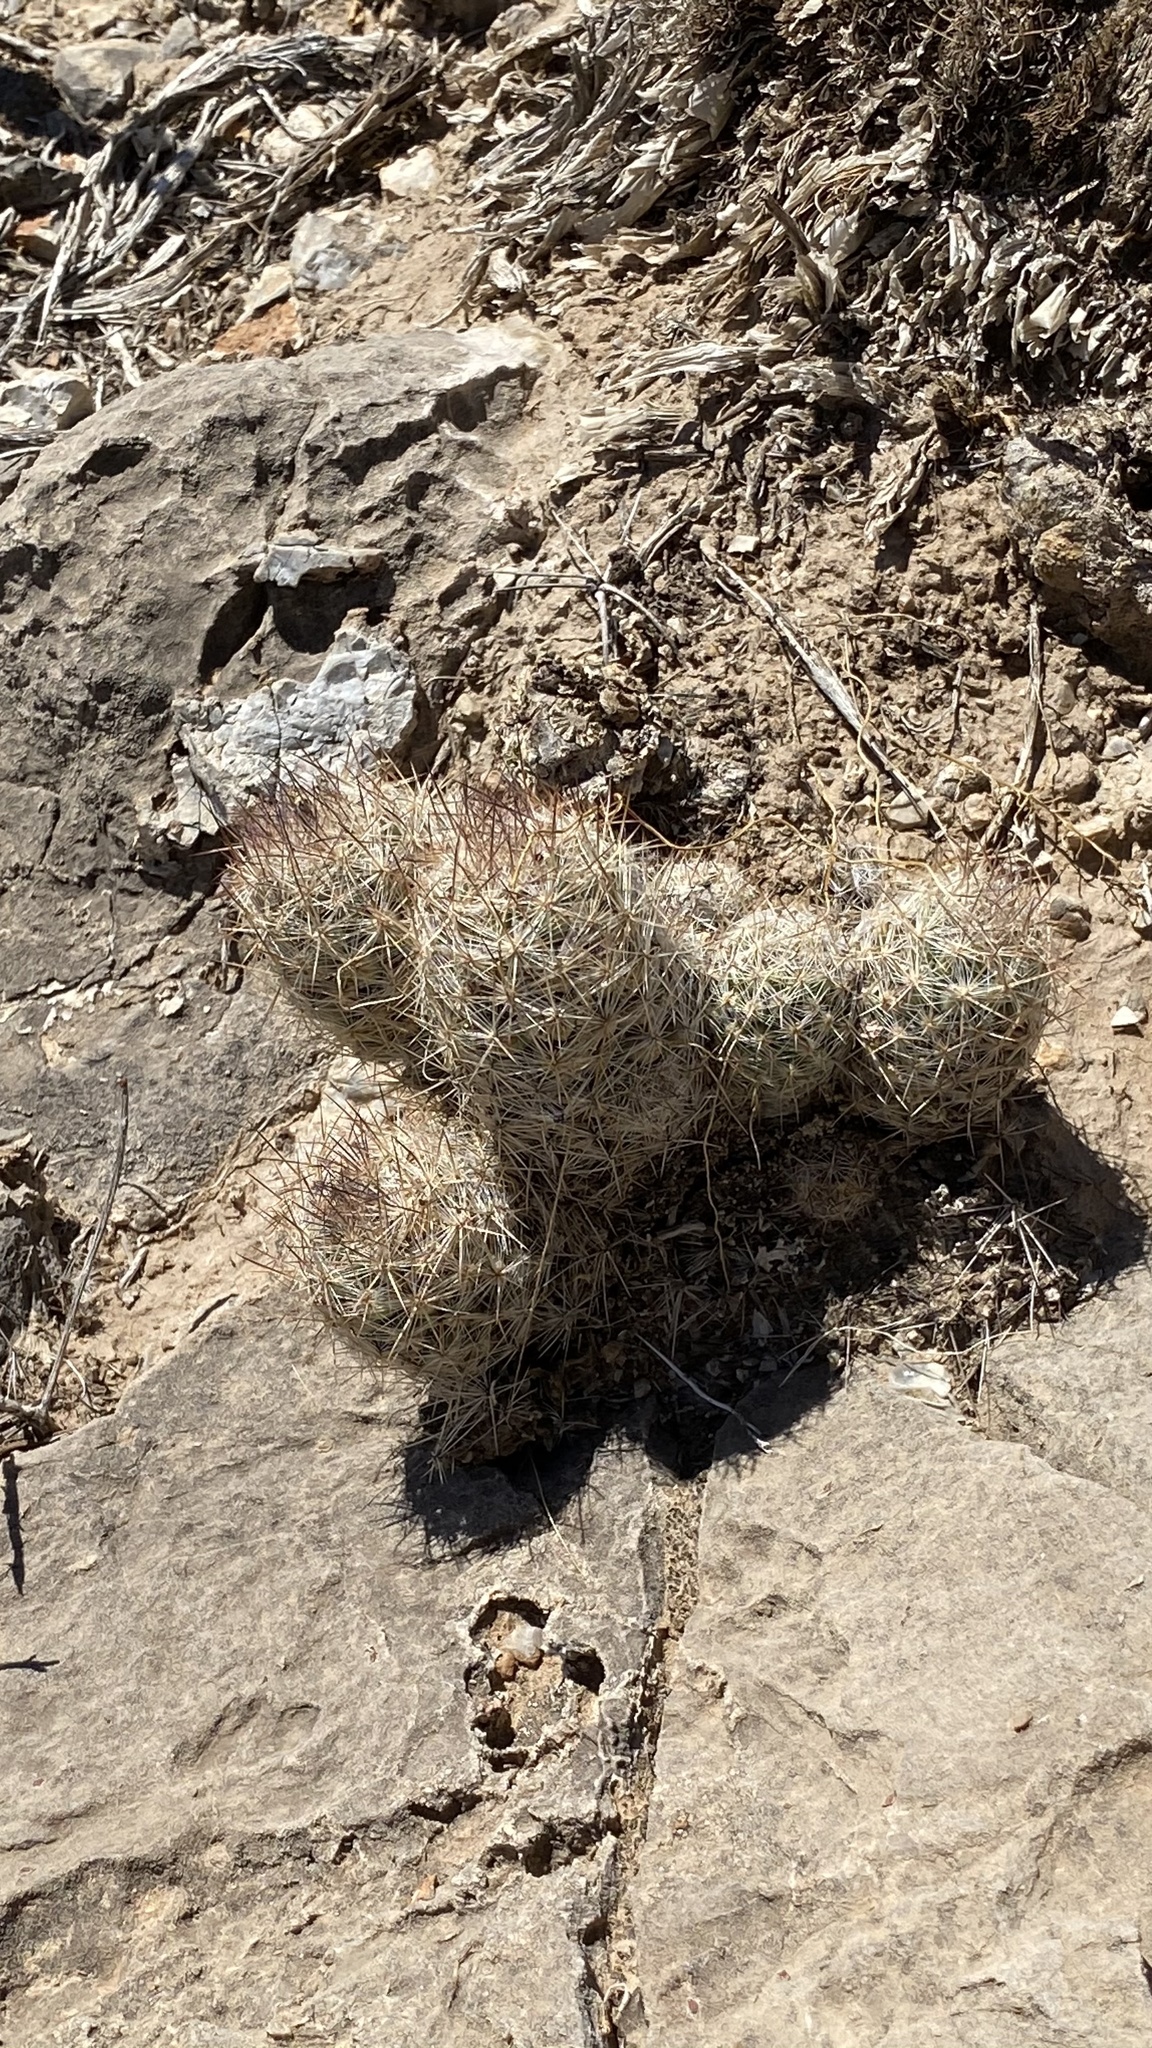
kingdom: Plantae
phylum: Tracheophyta
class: Magnoliopsida
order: Caryophyllales
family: Cactaceae
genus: Pelecyphora
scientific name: Pelecyphora tuberculosa
